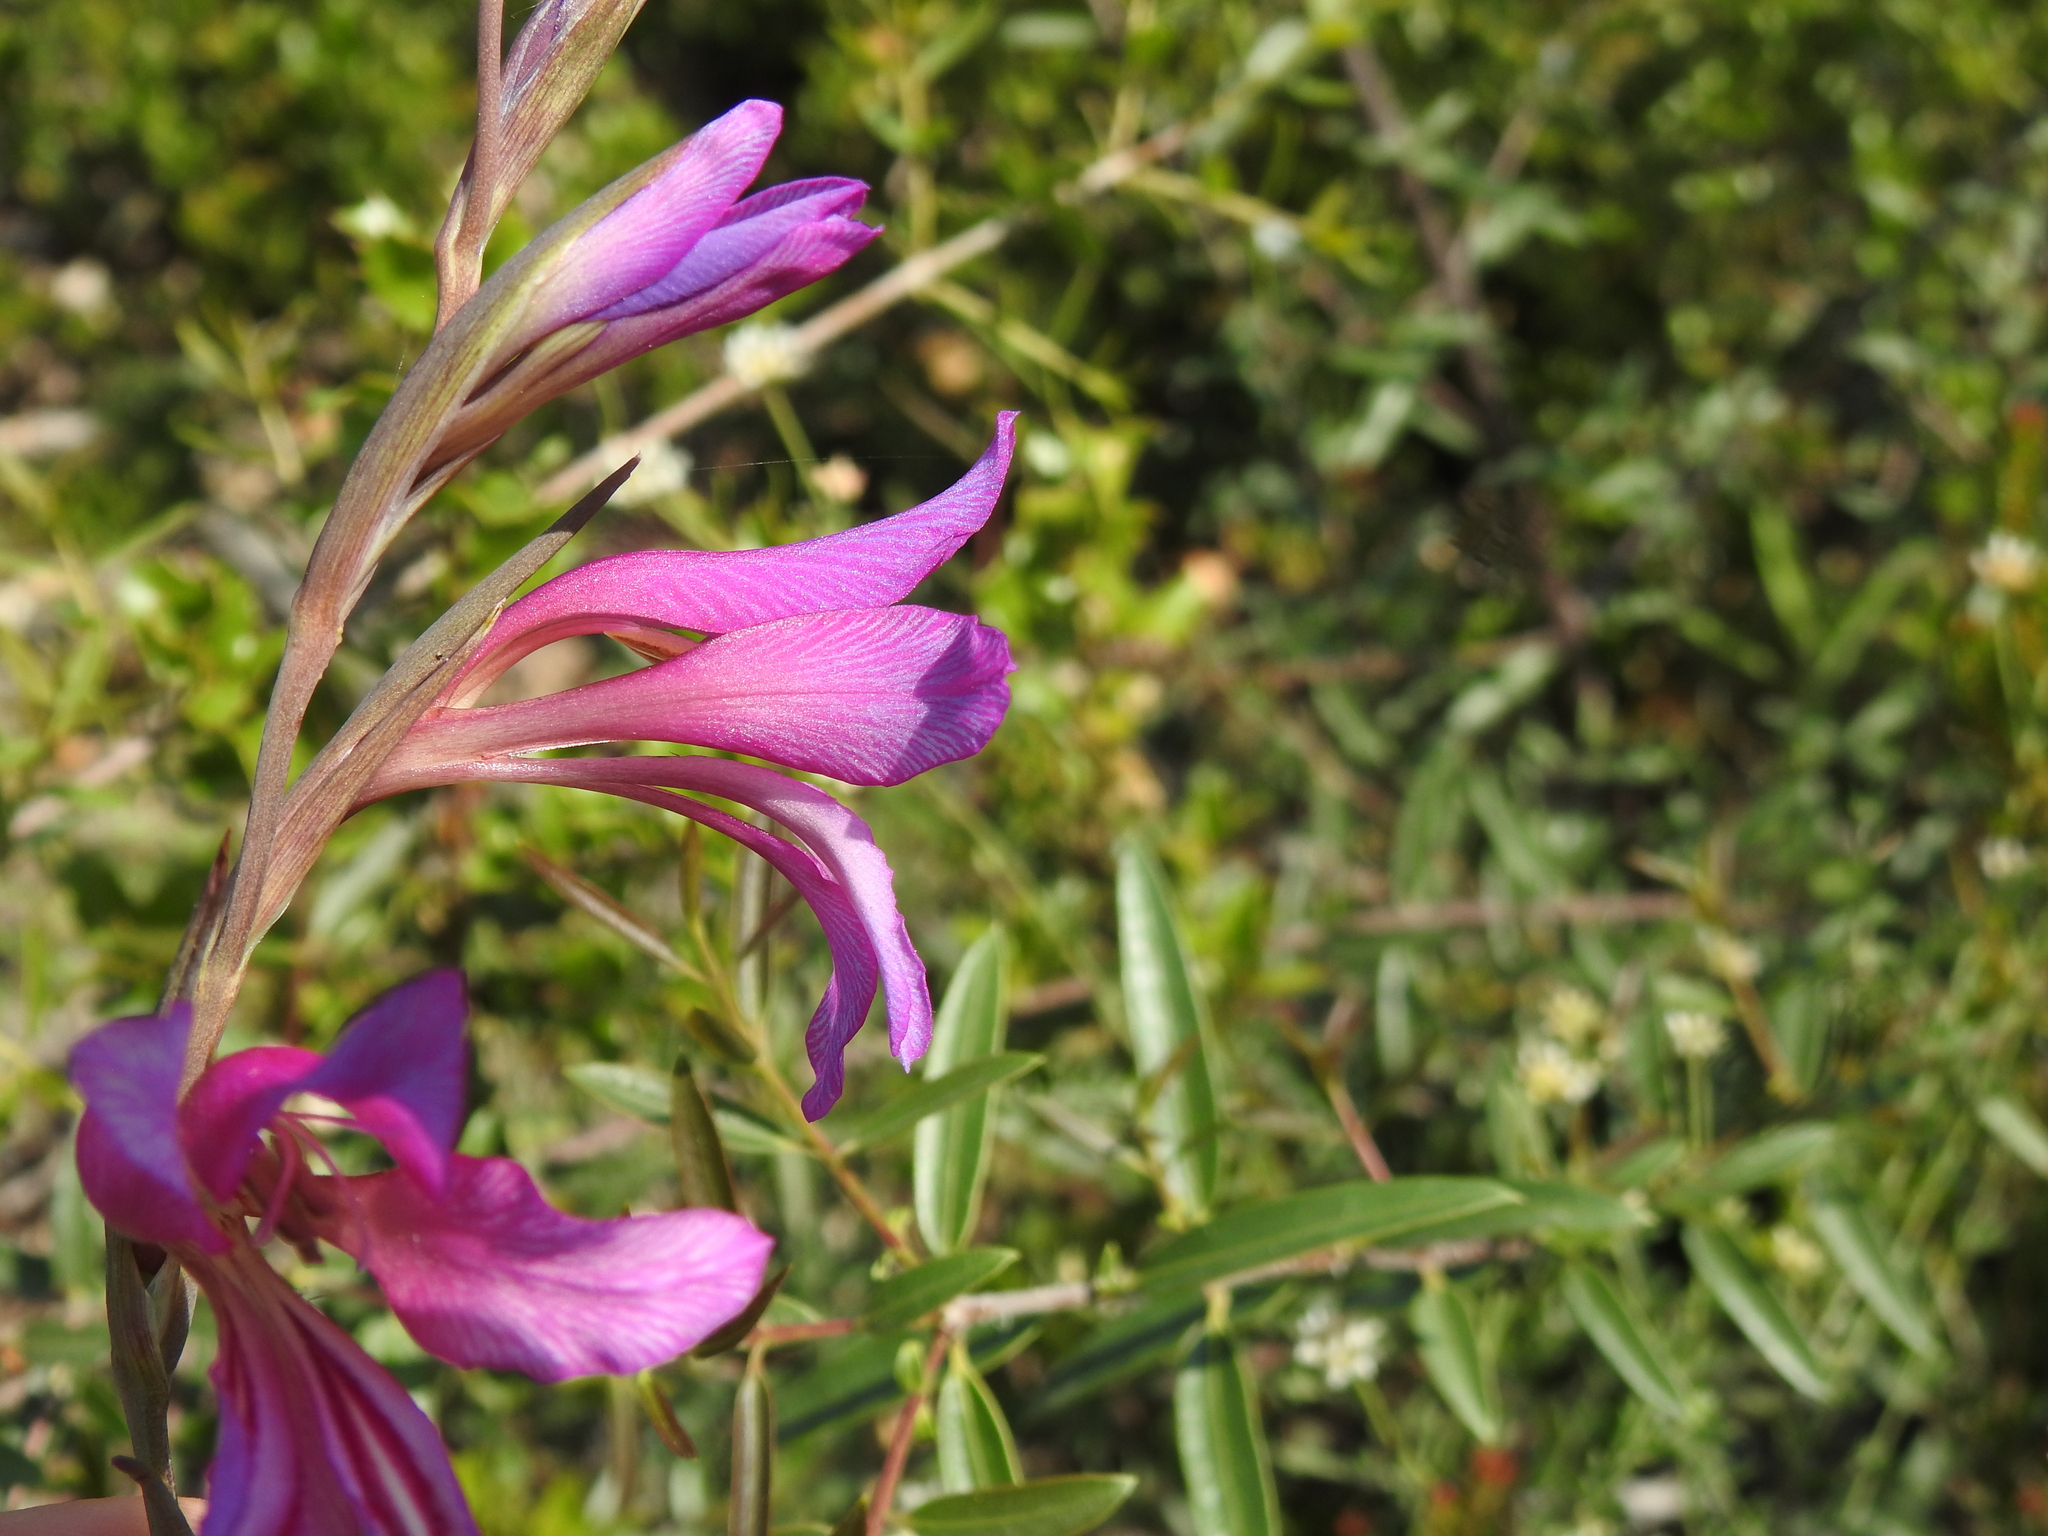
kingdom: Plantae
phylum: Tracheophyta
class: Liliopsida
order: Asparagales
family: Iridaceae
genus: Gladiolus
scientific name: Gladiolus dubius
